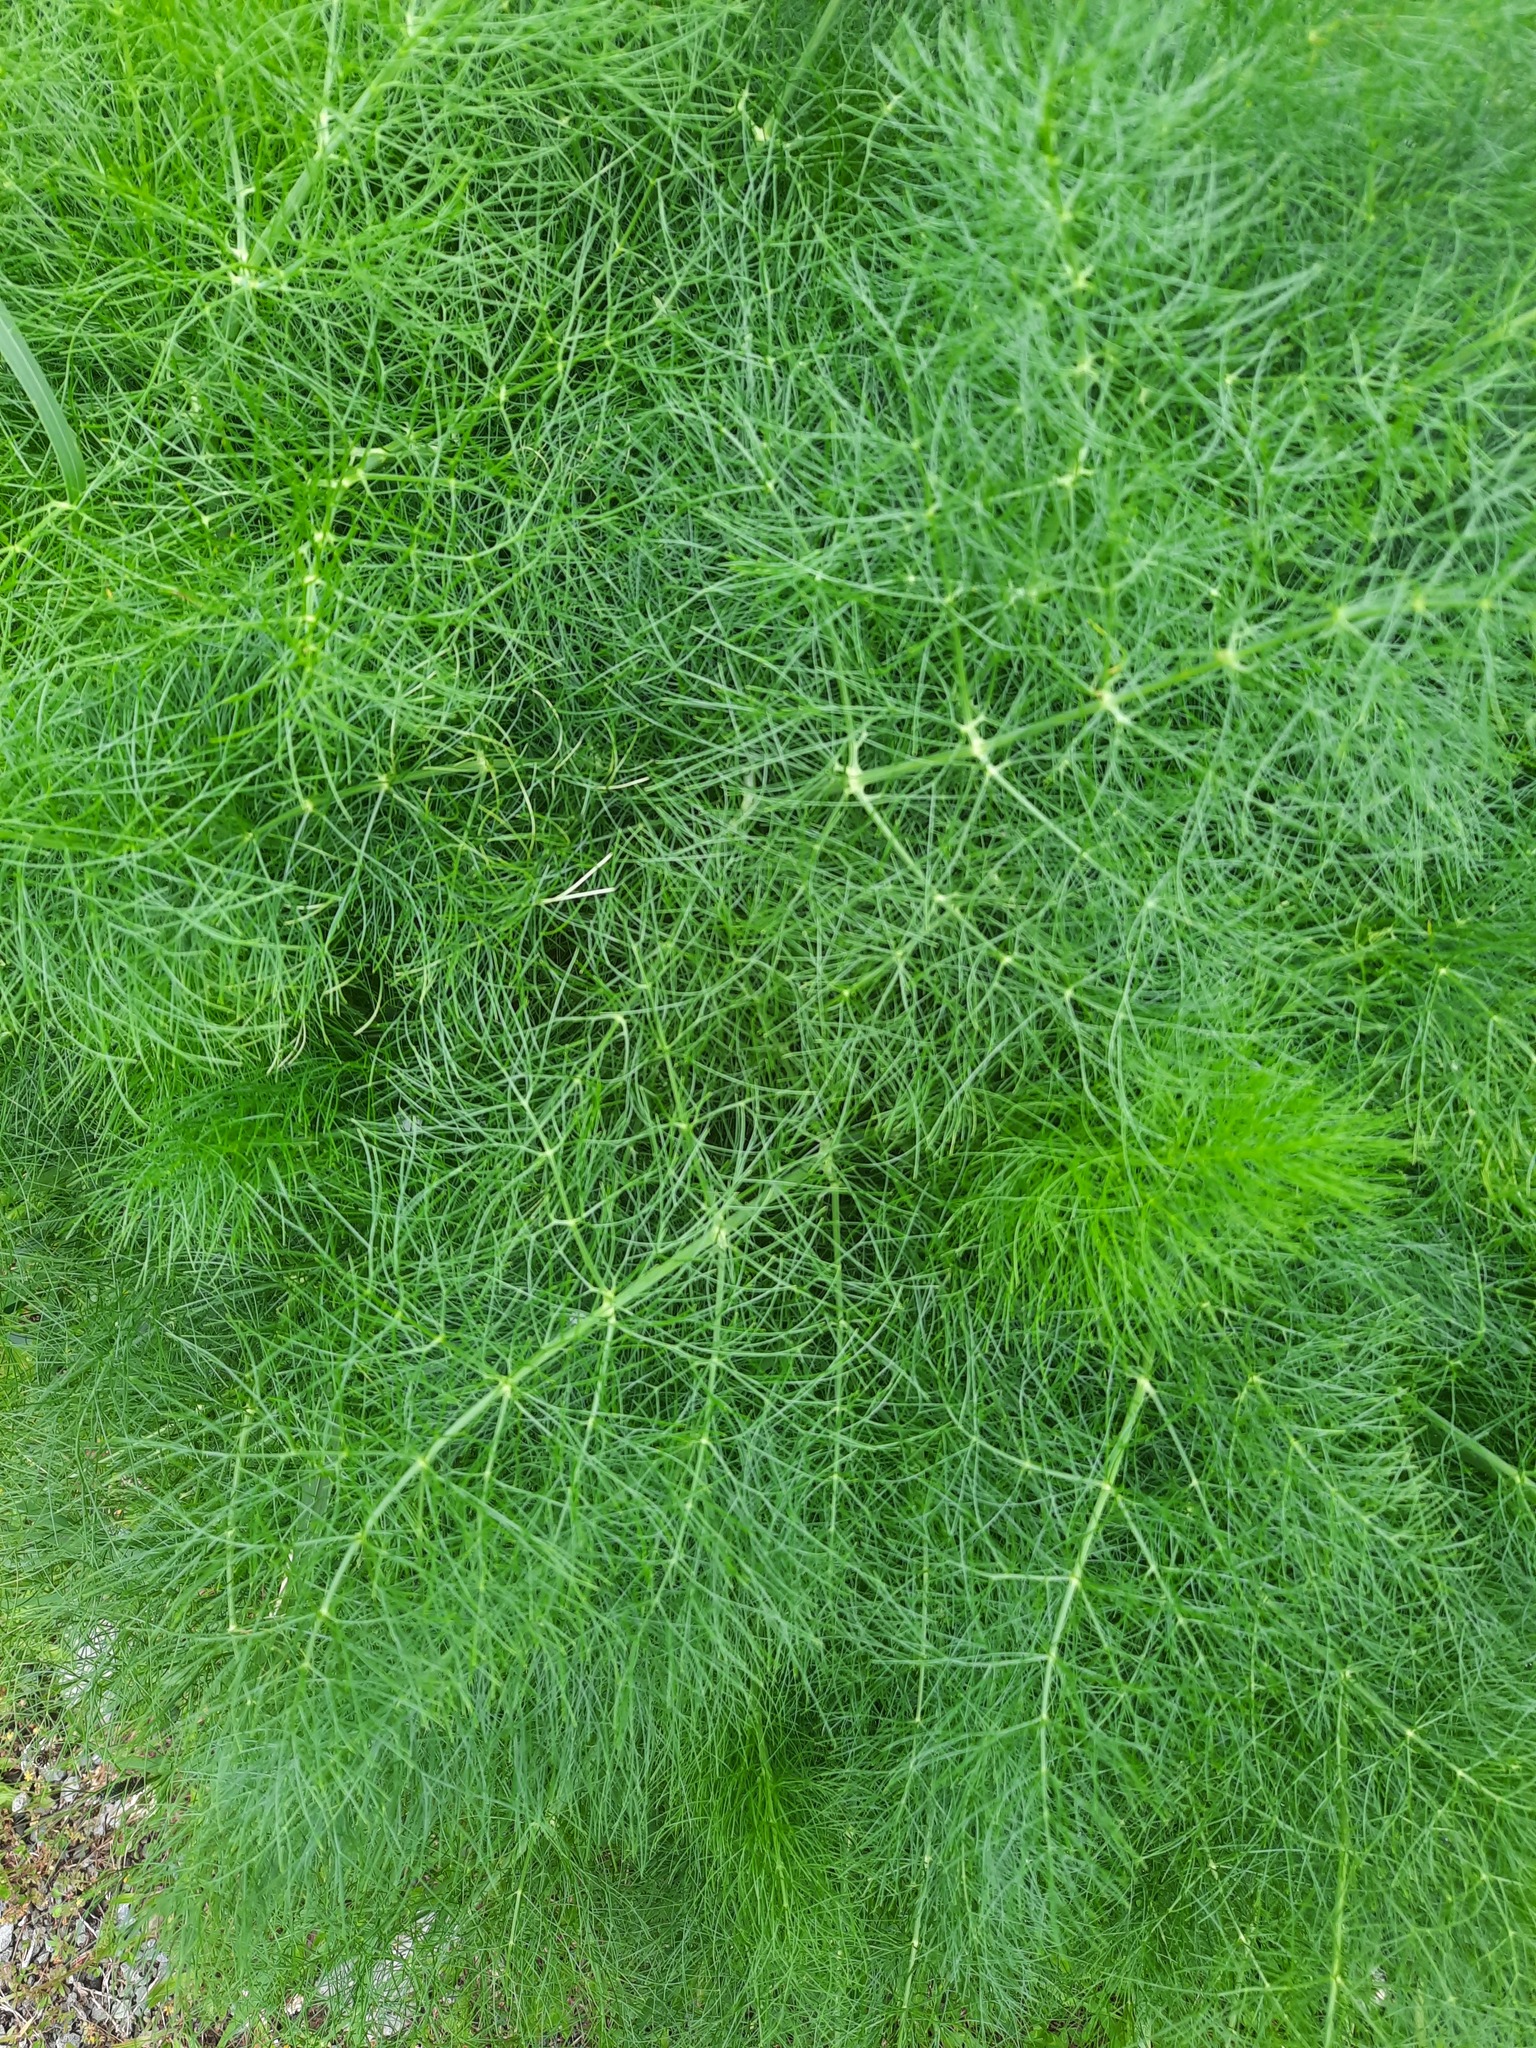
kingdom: Plantae
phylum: Tracheophyta
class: Magnoliopsida
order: Apiales
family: Apiaceae
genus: Foeniculum
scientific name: Foeniculum vulgare
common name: Fennel
